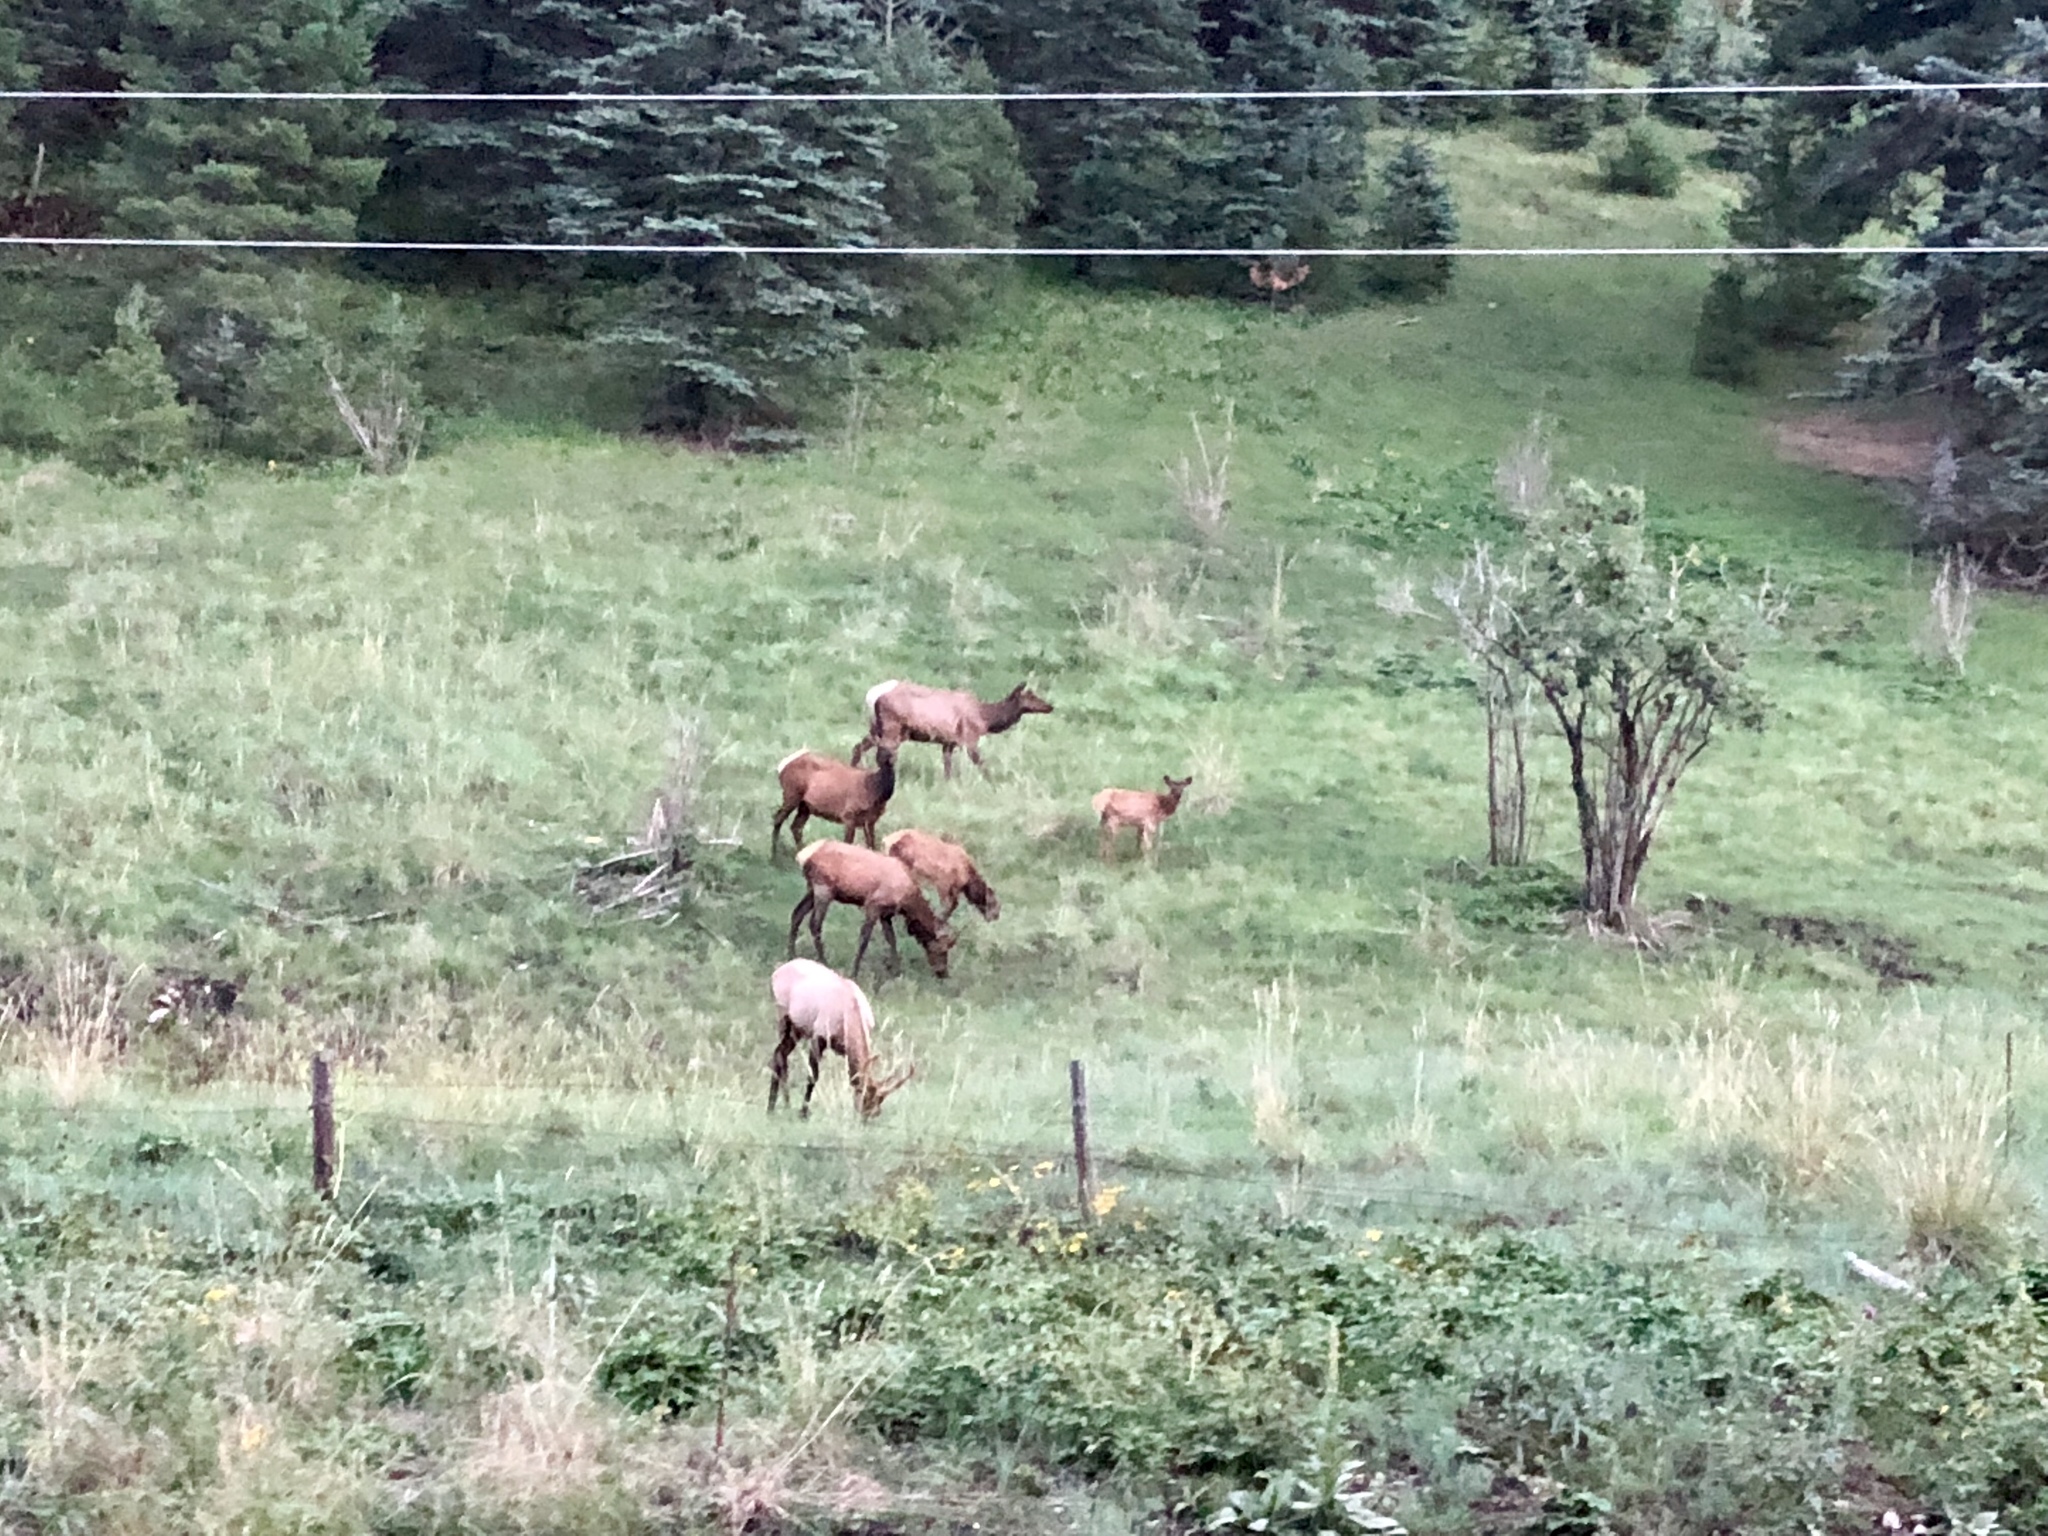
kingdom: Animalia
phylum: Chordata
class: Mammalia
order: Artiodactyla
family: Cervidae
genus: Cervus
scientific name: Cervus elaphus
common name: Red deer
